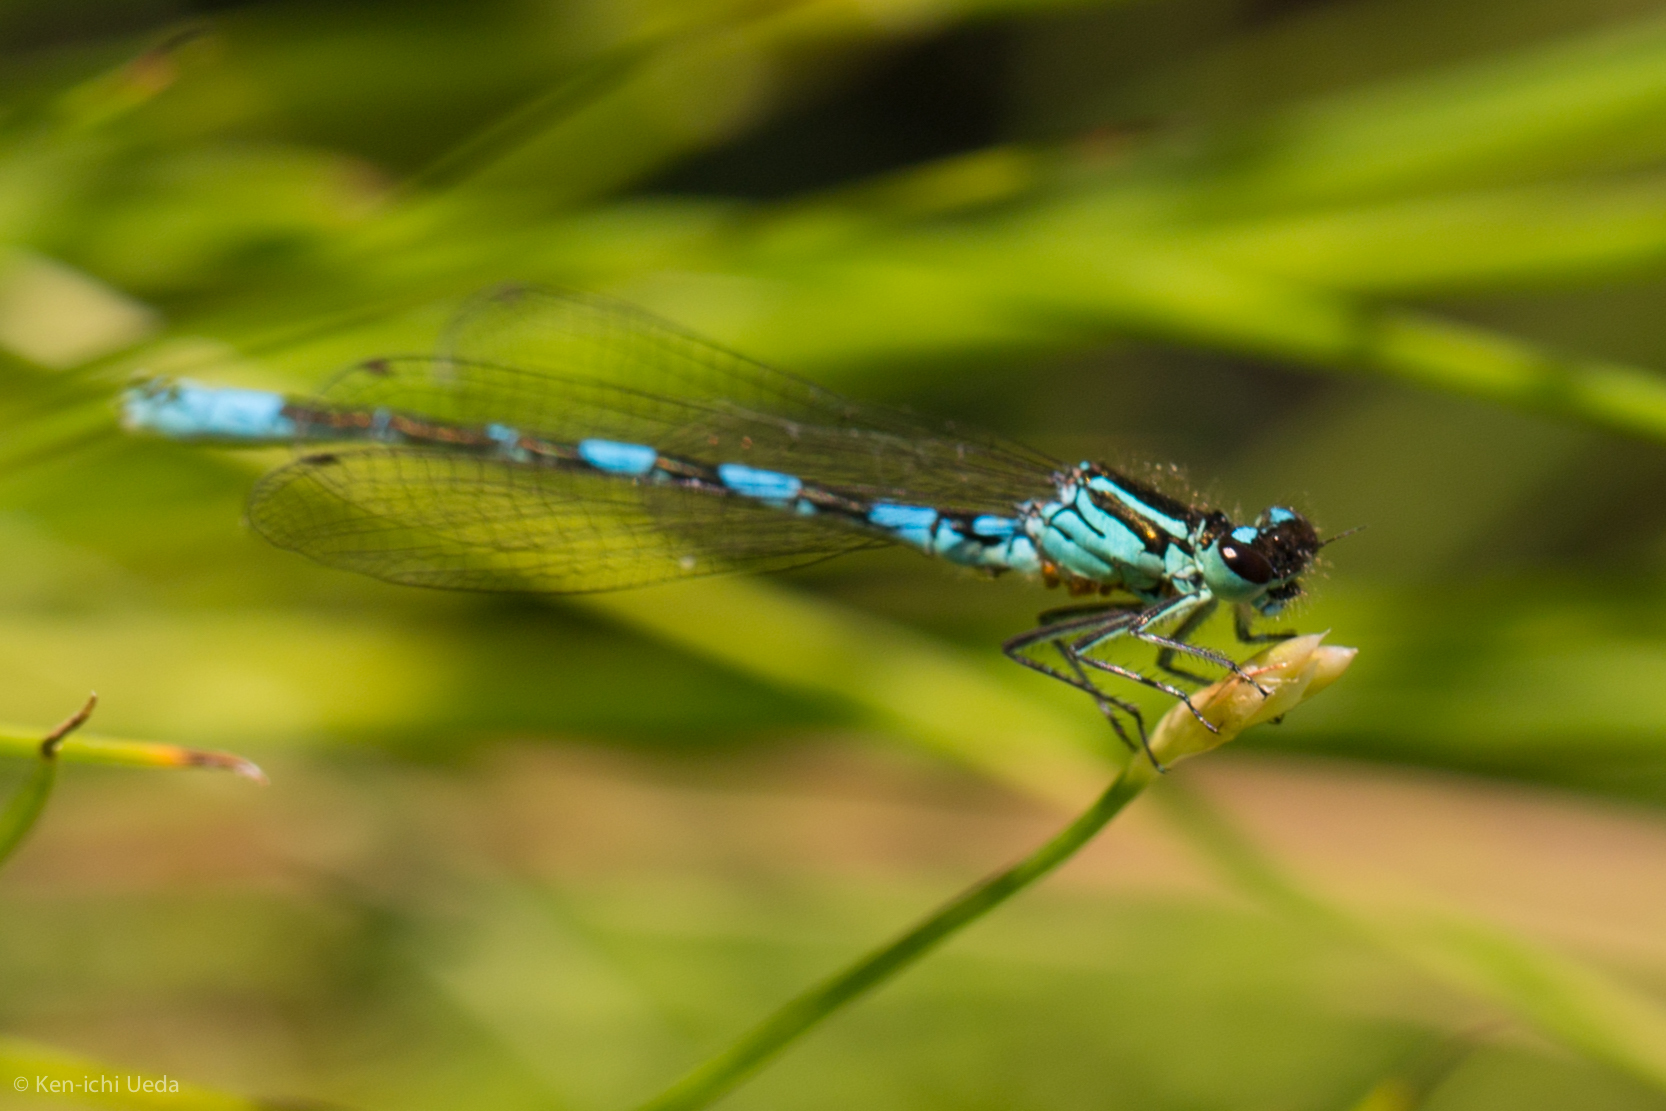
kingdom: Animalia
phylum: Arthropoda
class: Insecta
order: Odonata
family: Coenagrionidae
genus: Coenagrion
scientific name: Coenagrion resolutum
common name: Taiga bluet
